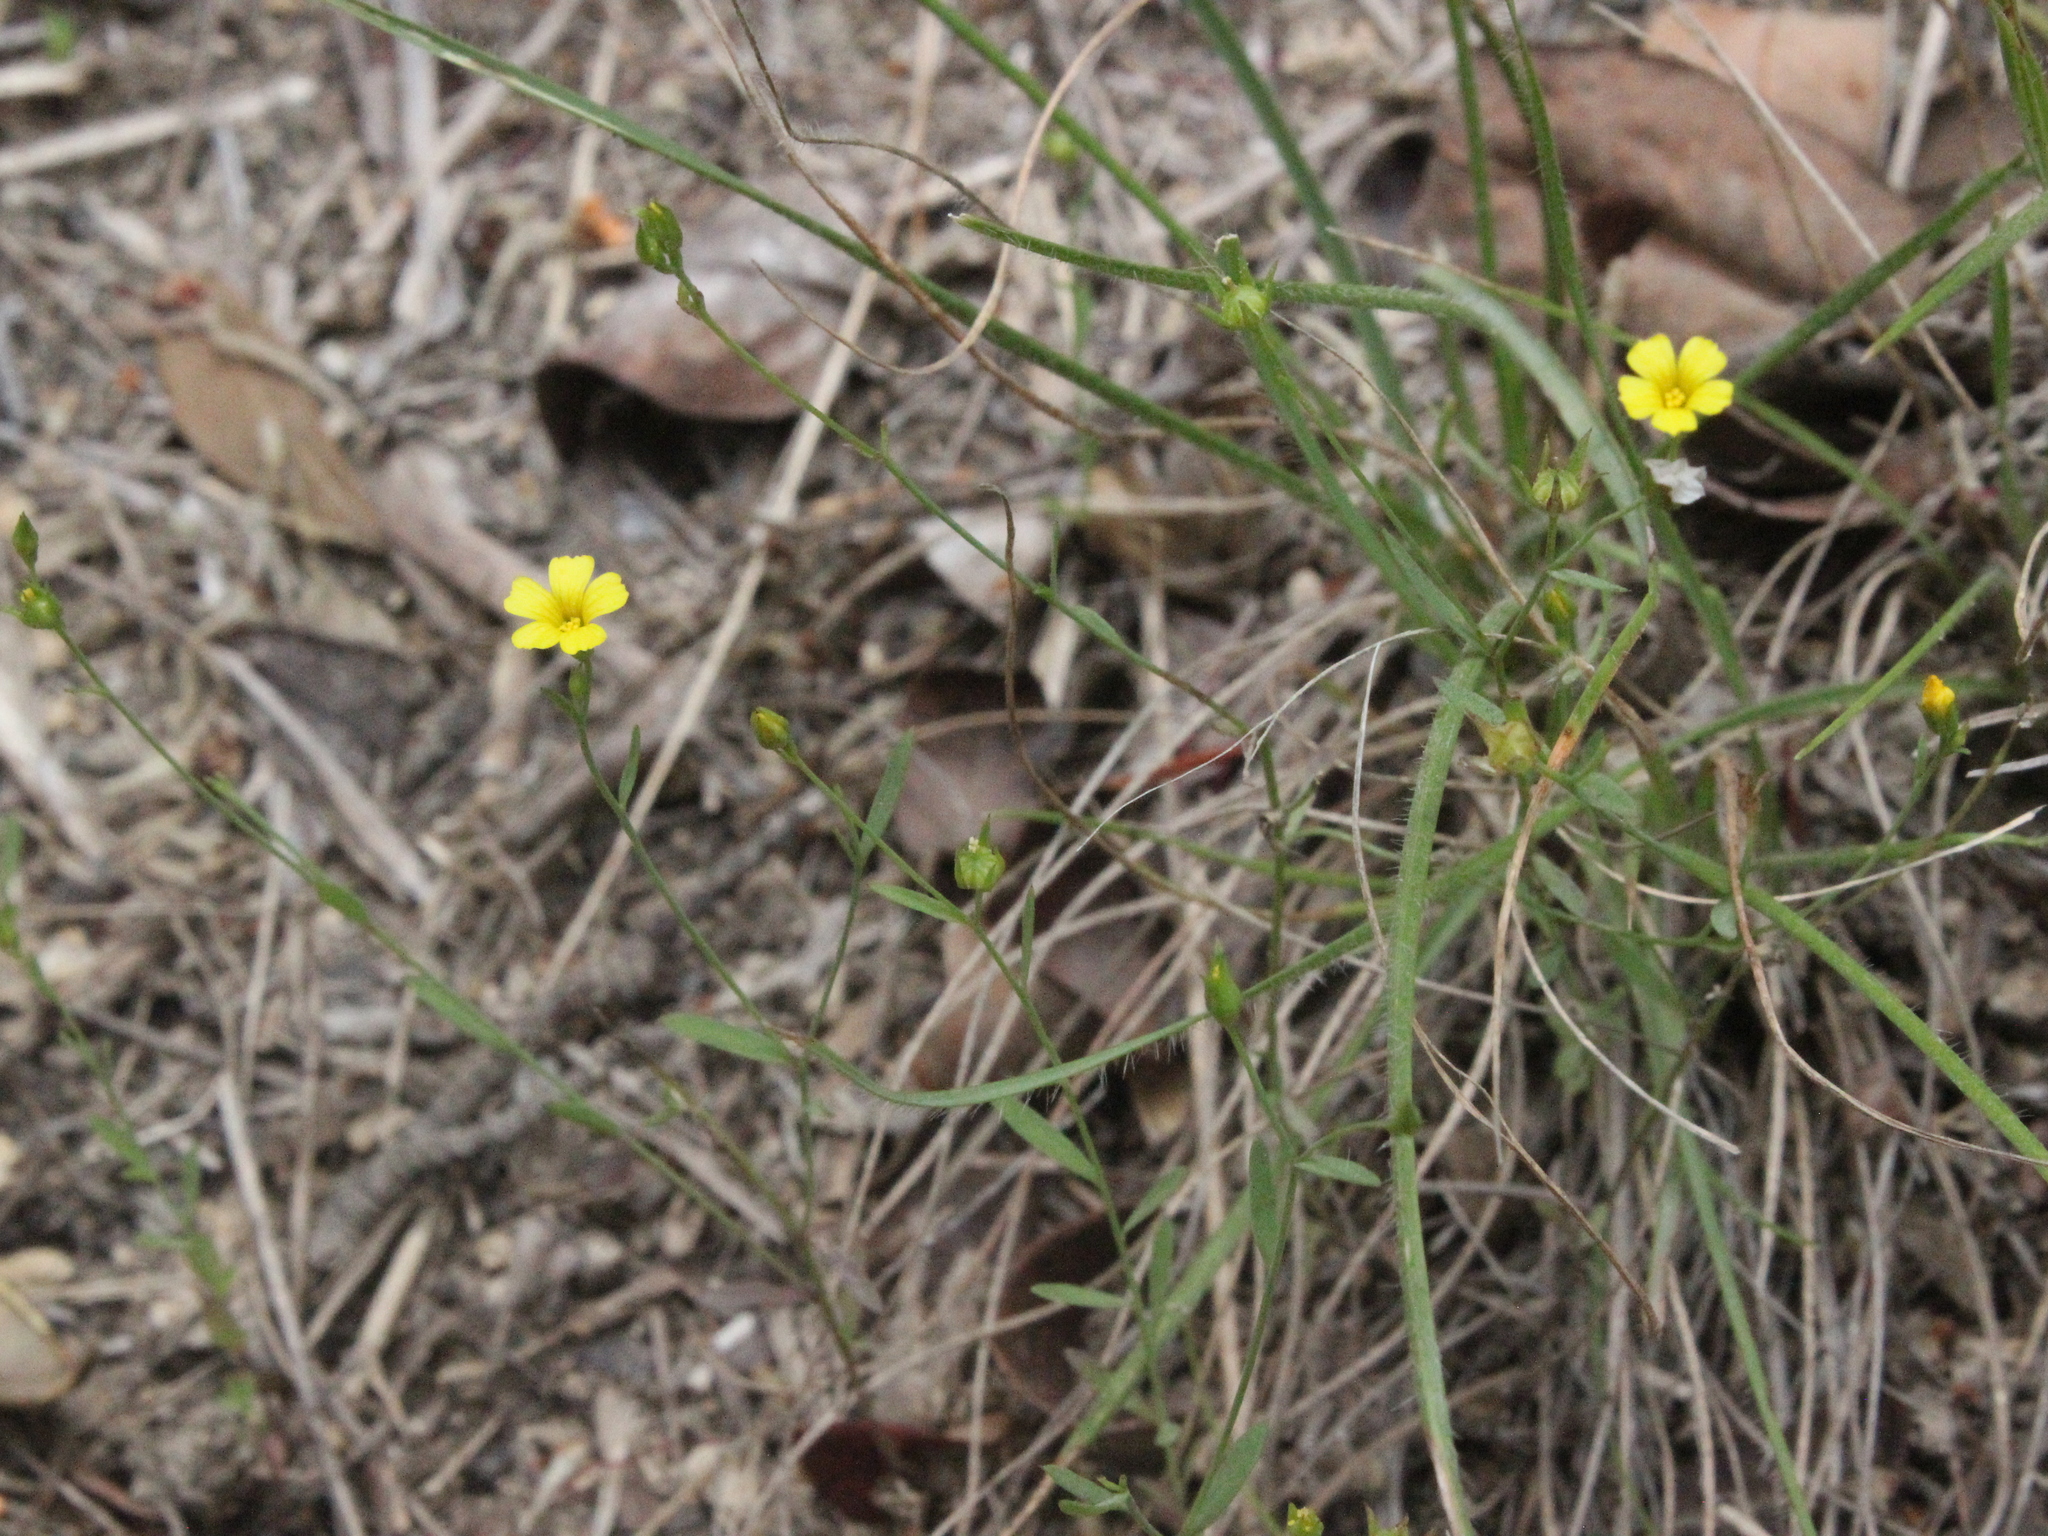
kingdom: Plantae
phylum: Tracheophyta
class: Magnoliopsida
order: Malpighiales
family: Linaceae
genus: Linum
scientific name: Linum trigynum
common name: French flax
